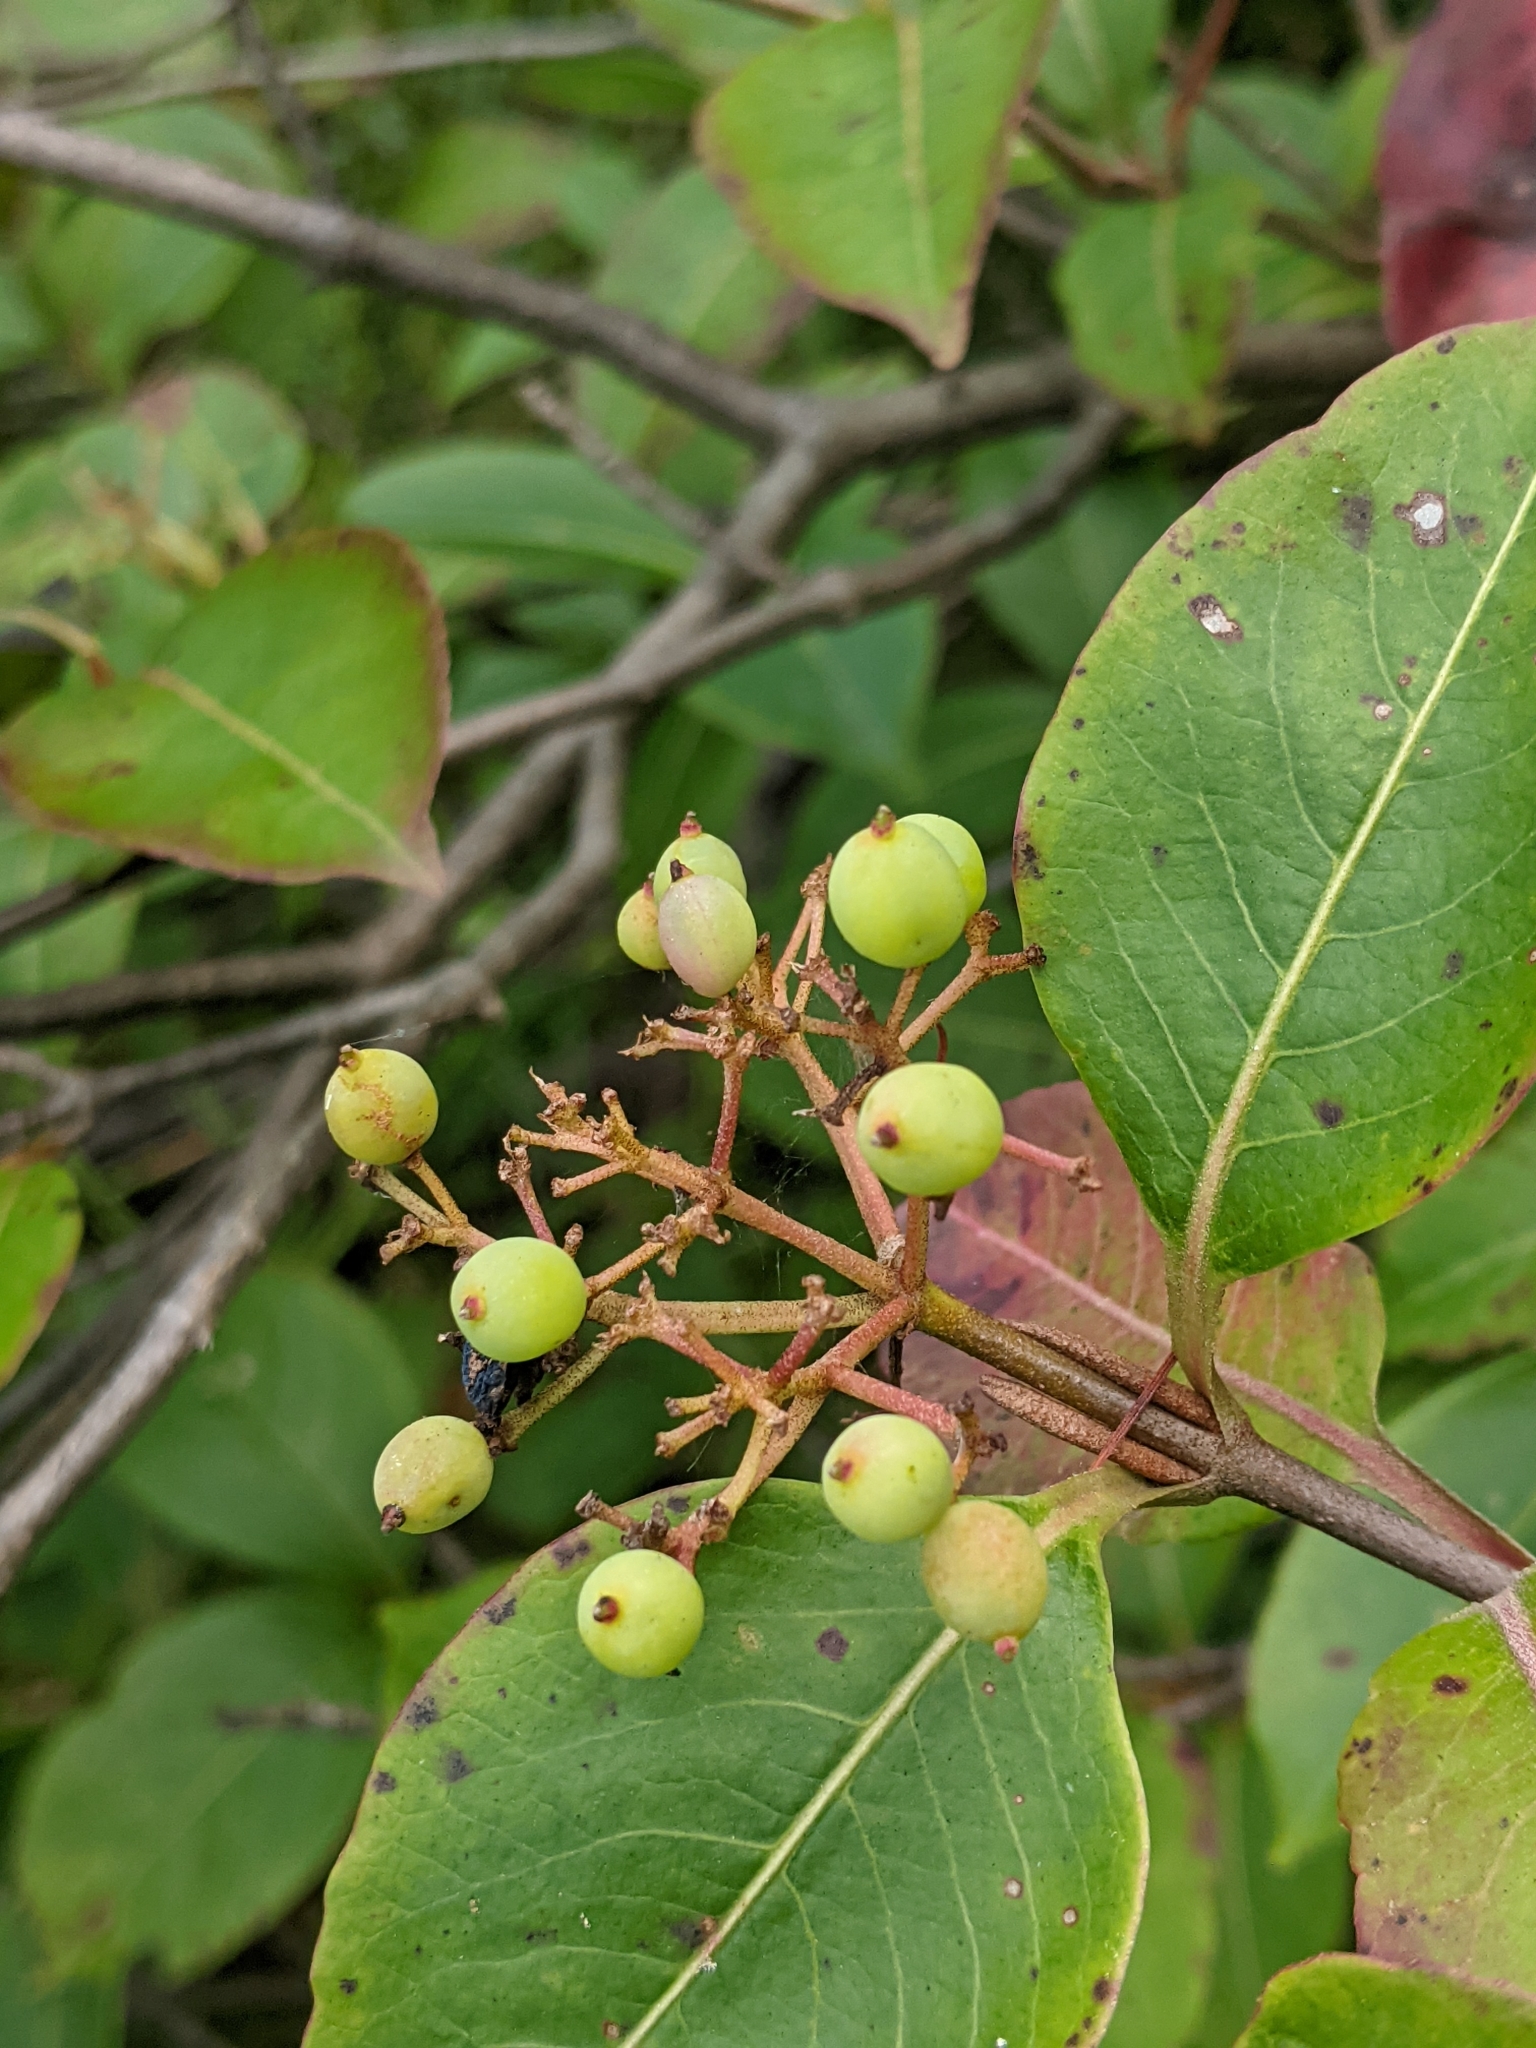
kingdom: Plantae
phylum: Tracheophyta
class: Magnoliopsida
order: Dipsacales
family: Viburnaceae
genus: Viburnum
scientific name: Viburnum cassinoides
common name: Swamp haw
